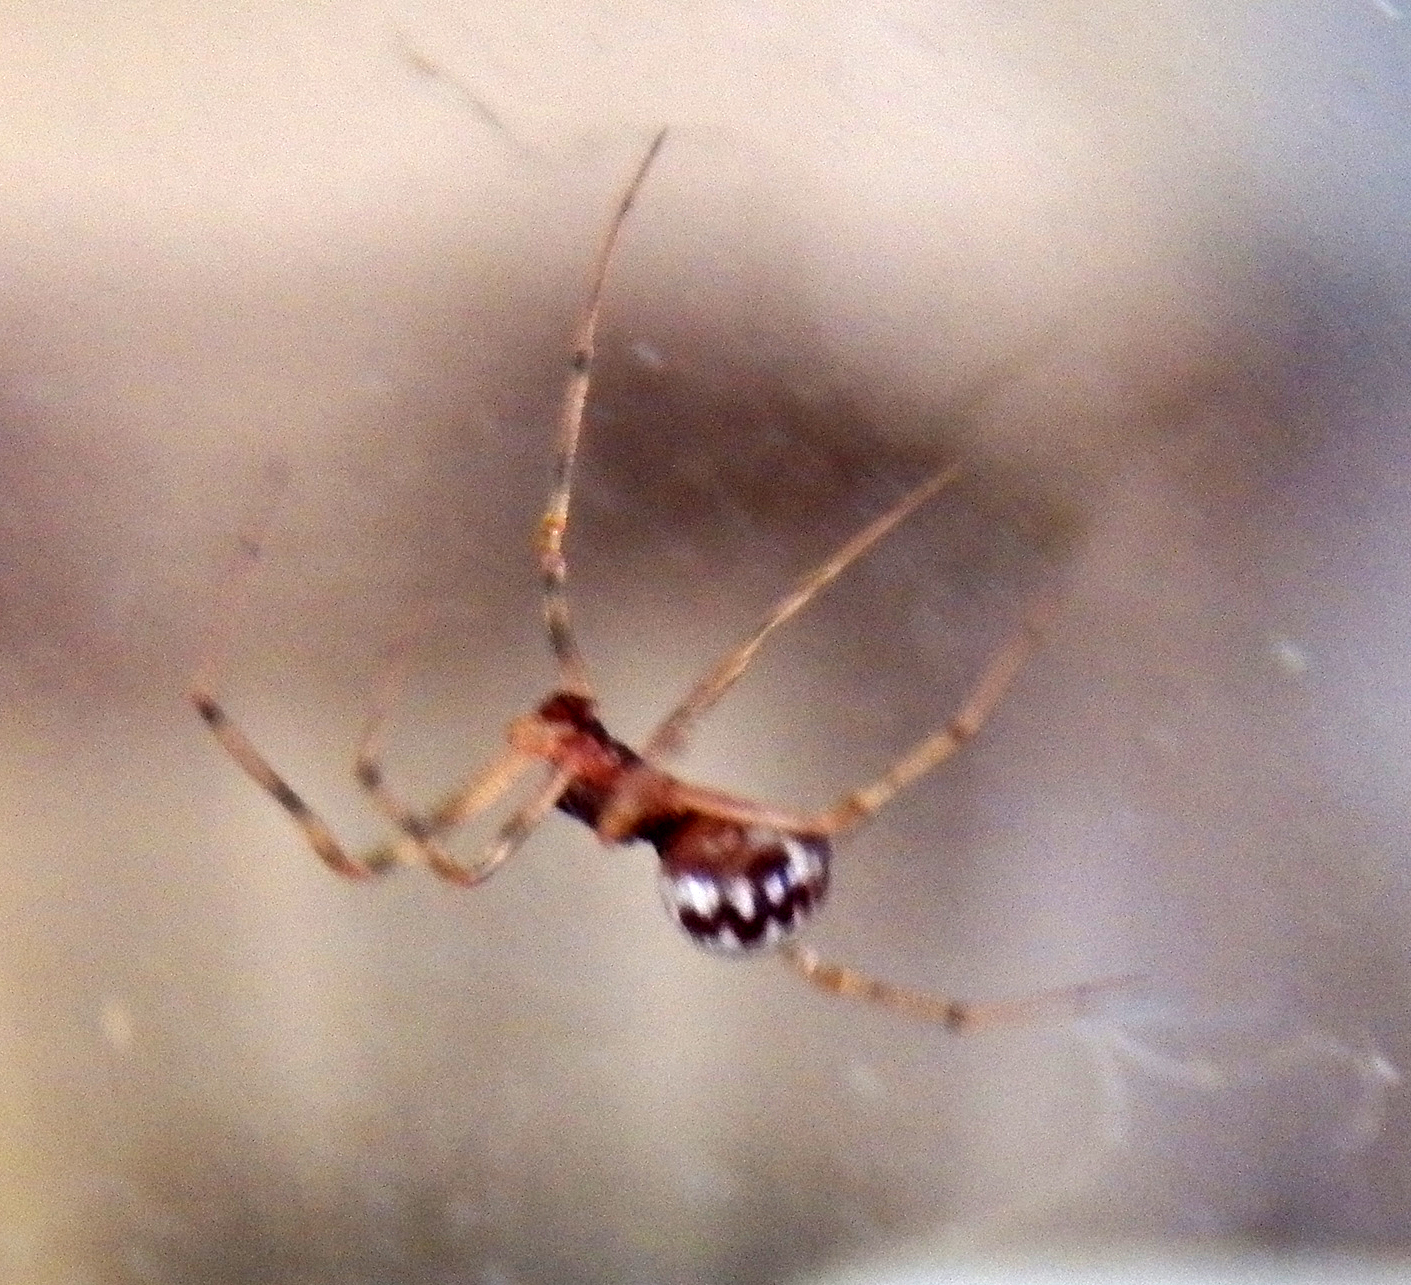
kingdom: Animalia
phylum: Arthropoda
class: Arachnida
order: Araneae
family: Theridiidae
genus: Steatoda
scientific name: Steatoda triangulosa
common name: Triangulate bud spider
